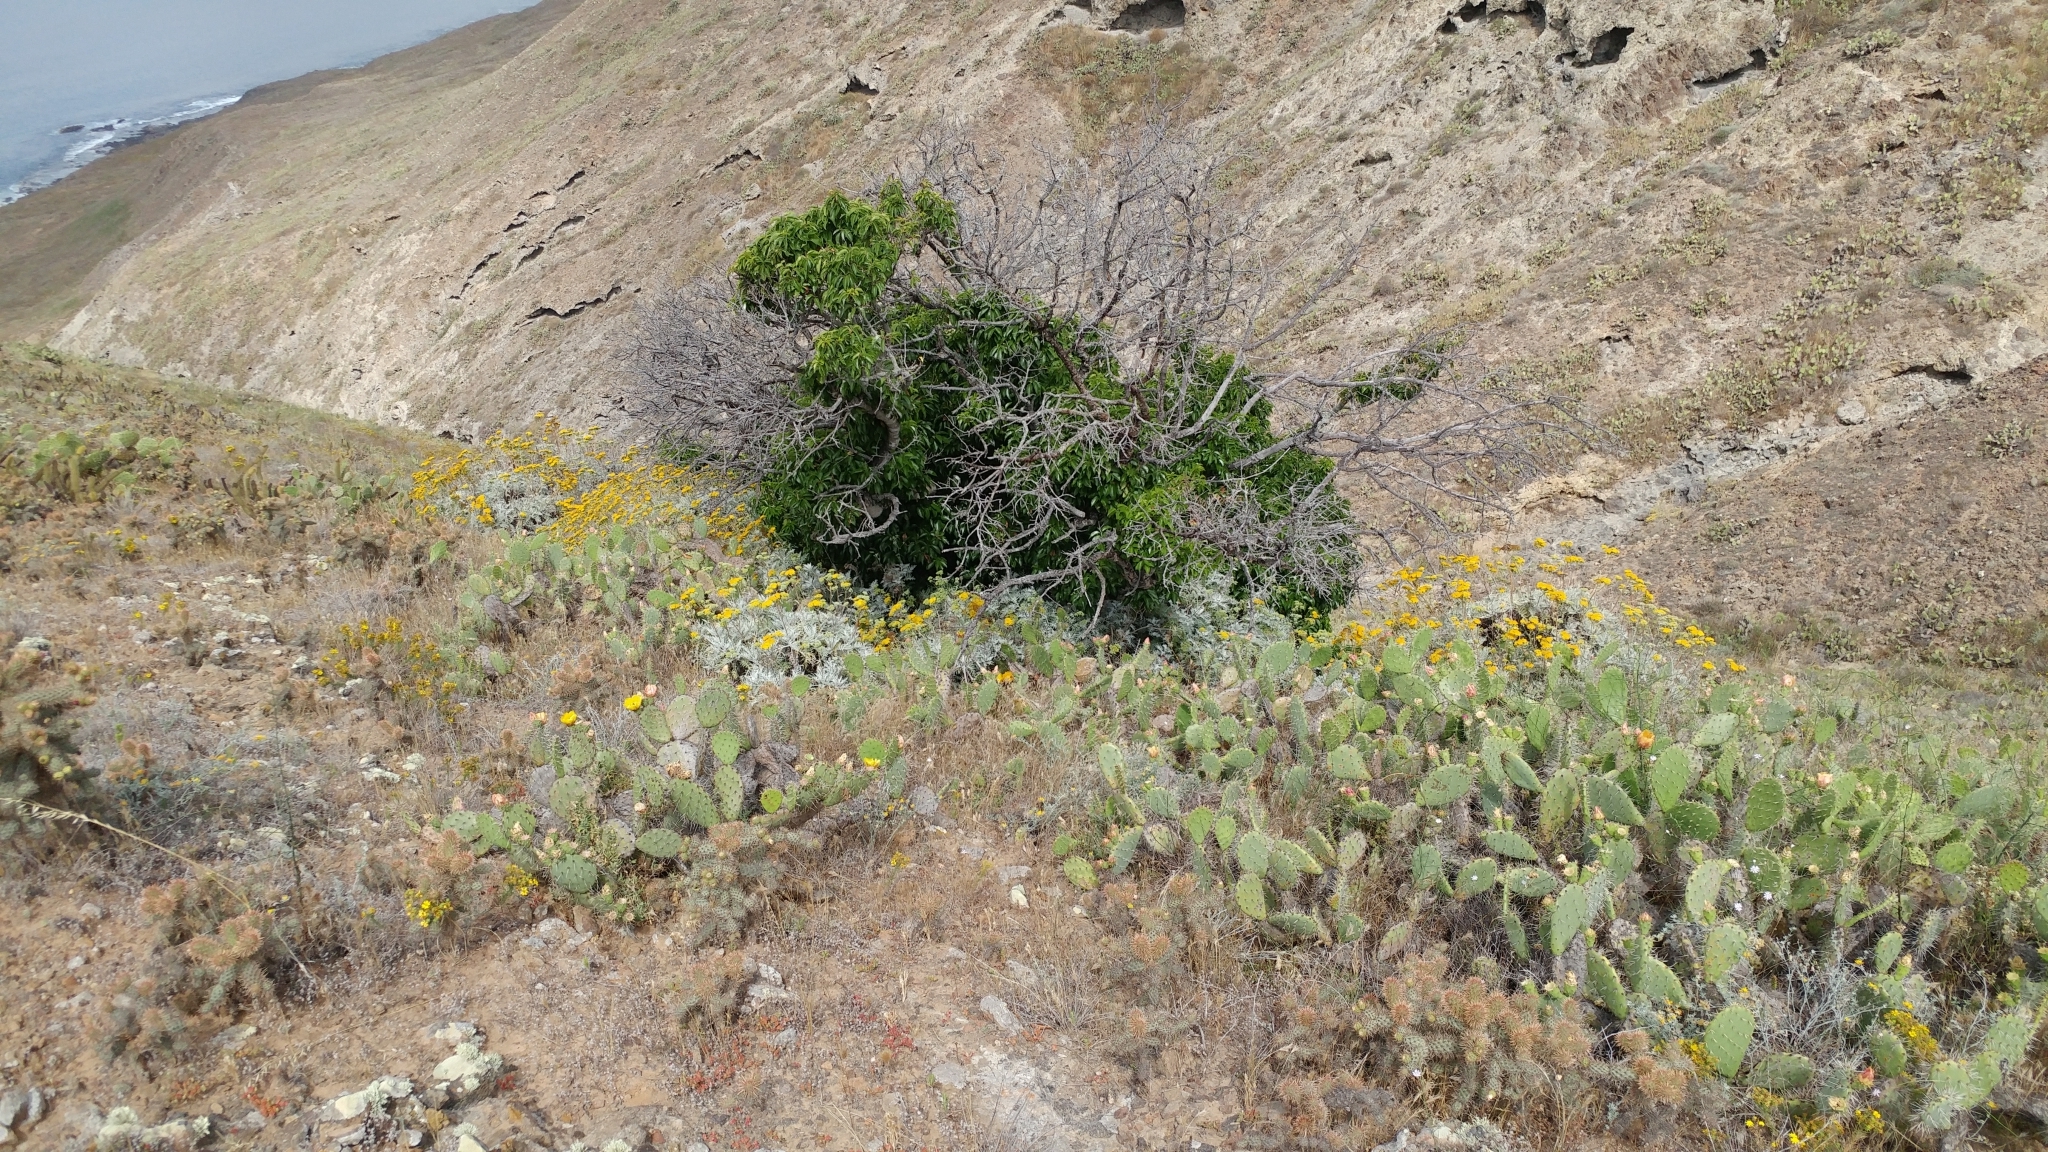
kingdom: Plantae
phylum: Tracheophyta
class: Magnoliopsida
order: Rosales
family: Rosaceae
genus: Prunus
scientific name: Prunus ilicifolia
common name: Hollyleaf cherry
